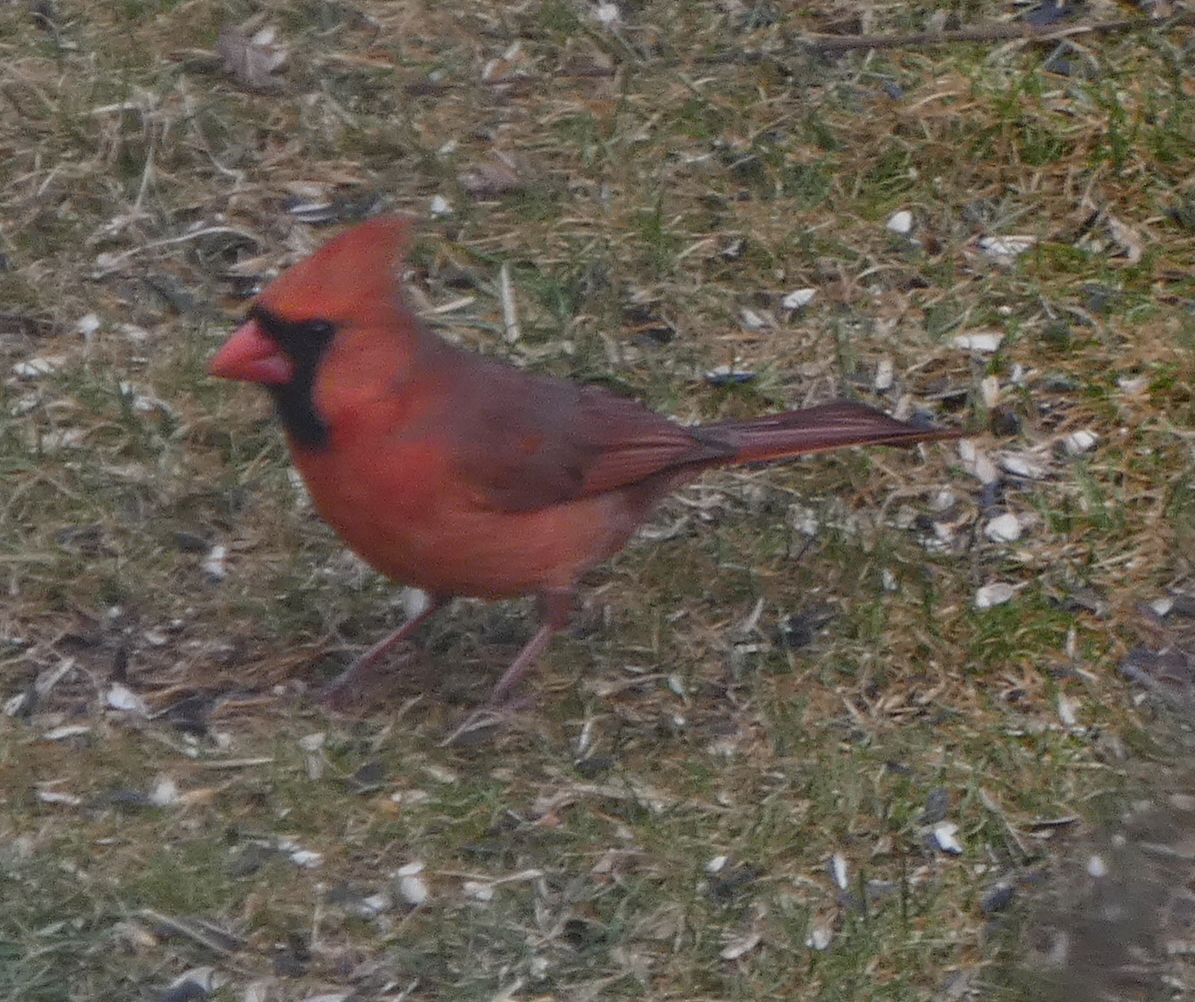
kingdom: Animalia
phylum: Chordata
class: Aves
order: Passeriformes
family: Cardinalidae
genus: Cardinalis
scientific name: Cardinalis cardinalis
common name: Northern cardinal
